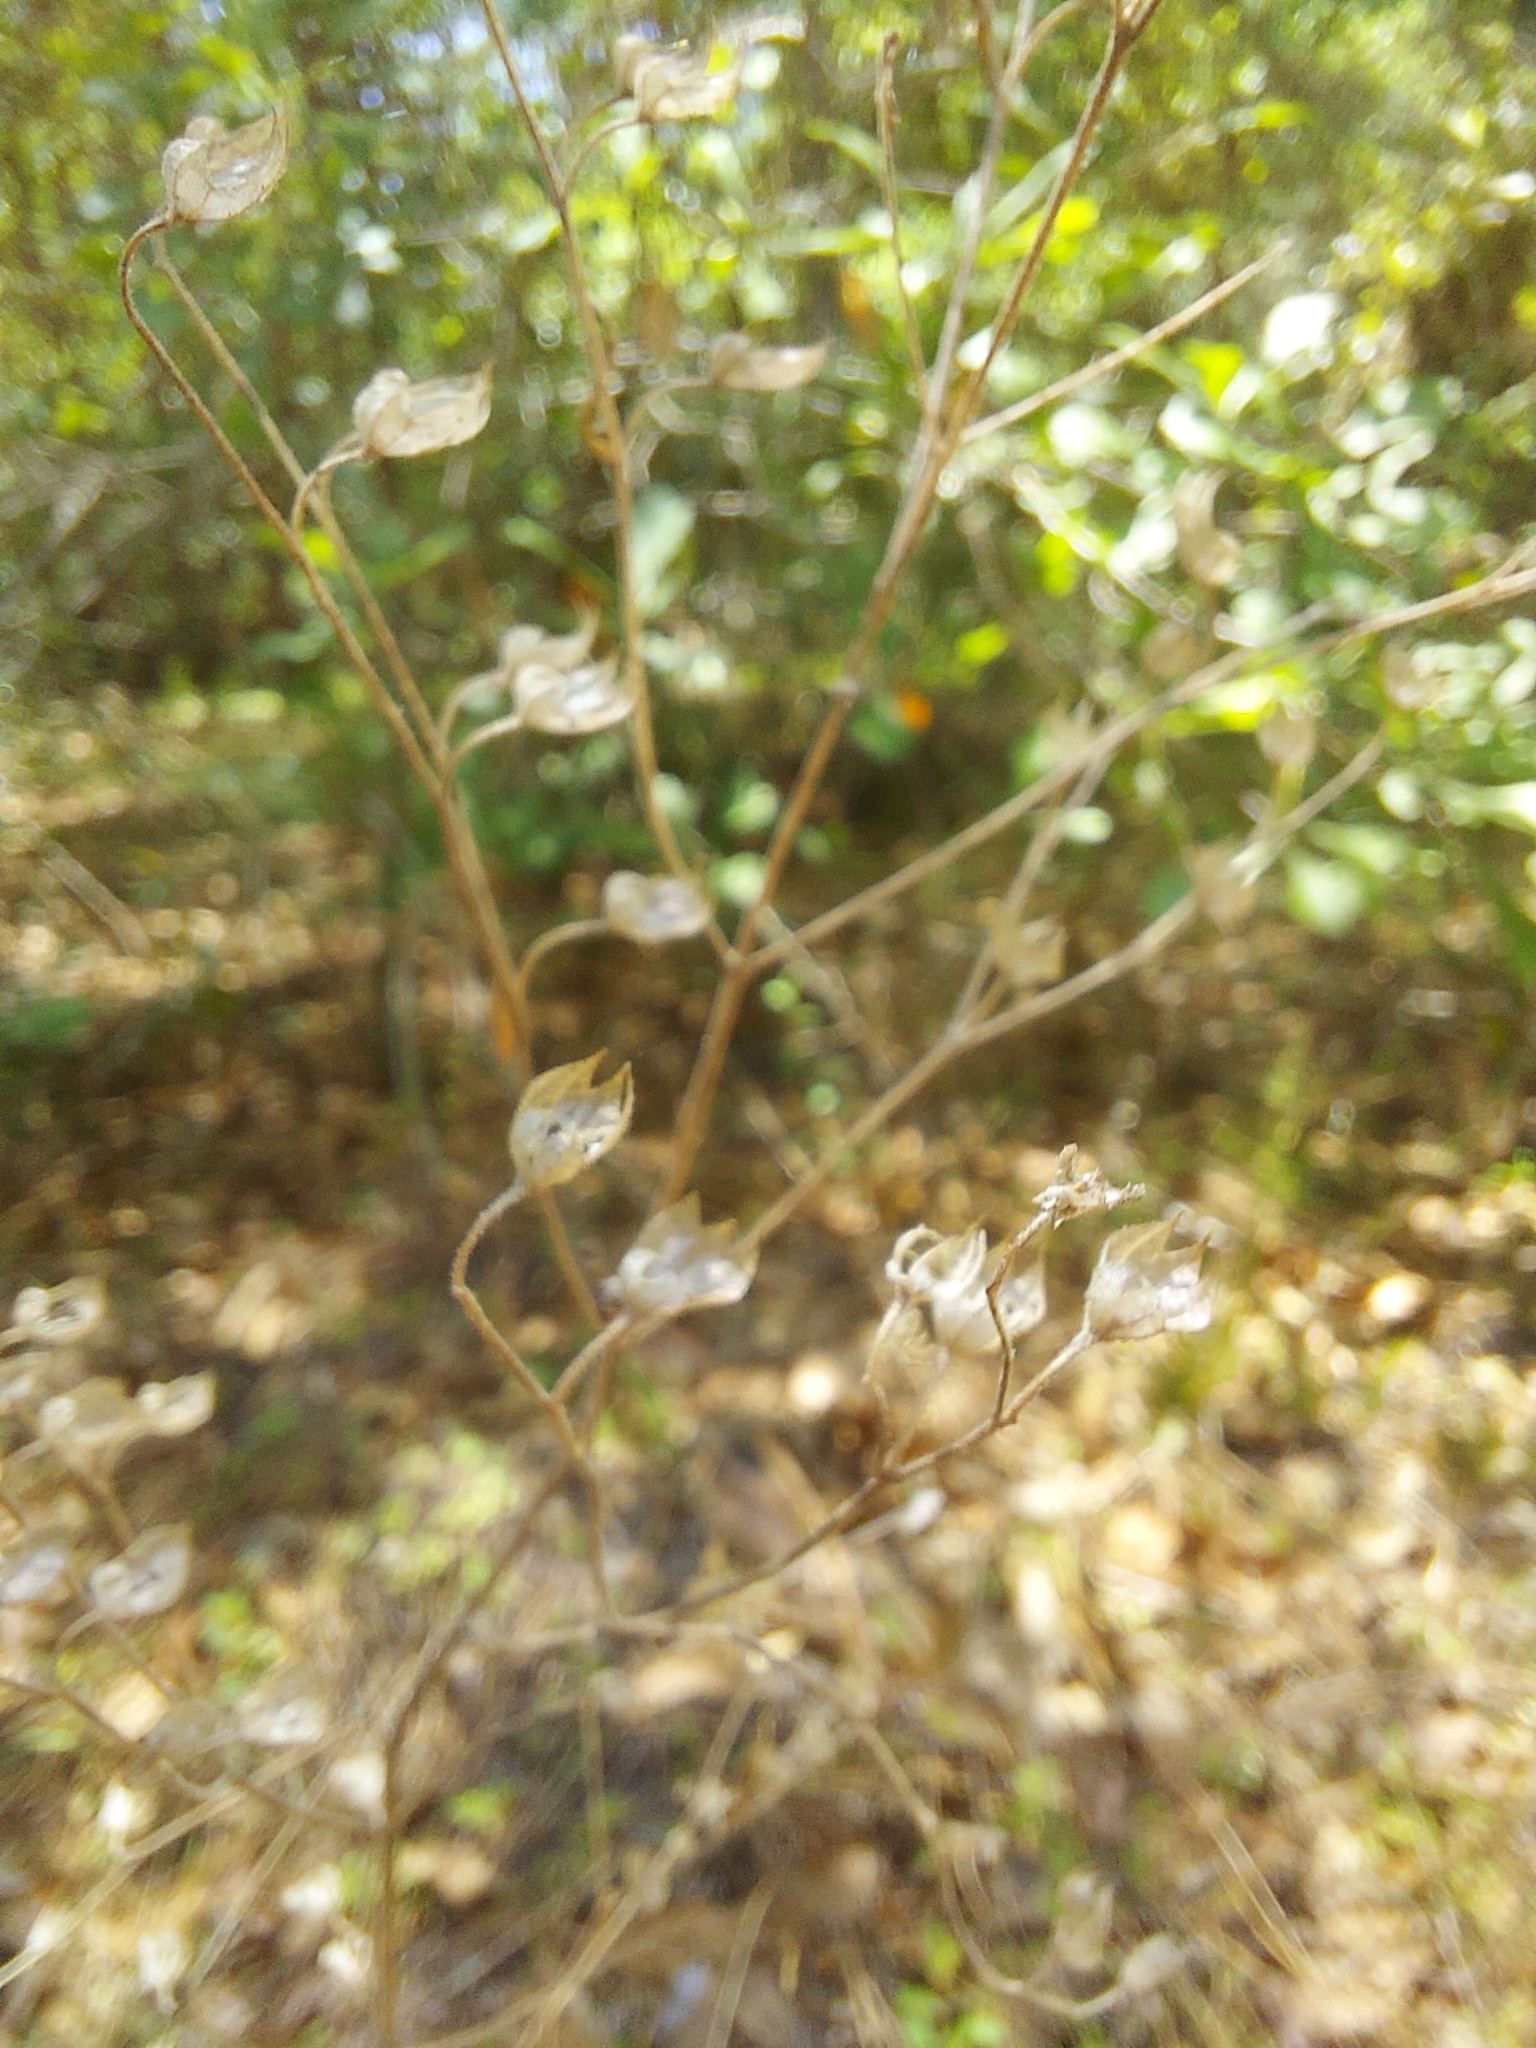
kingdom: Plantae
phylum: Tracheophyta
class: Magnoliopsida
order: Lamiales
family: Lamiaceae
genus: Trichostema
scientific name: Trichostema dichotomum
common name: Bastard pennyroyal
